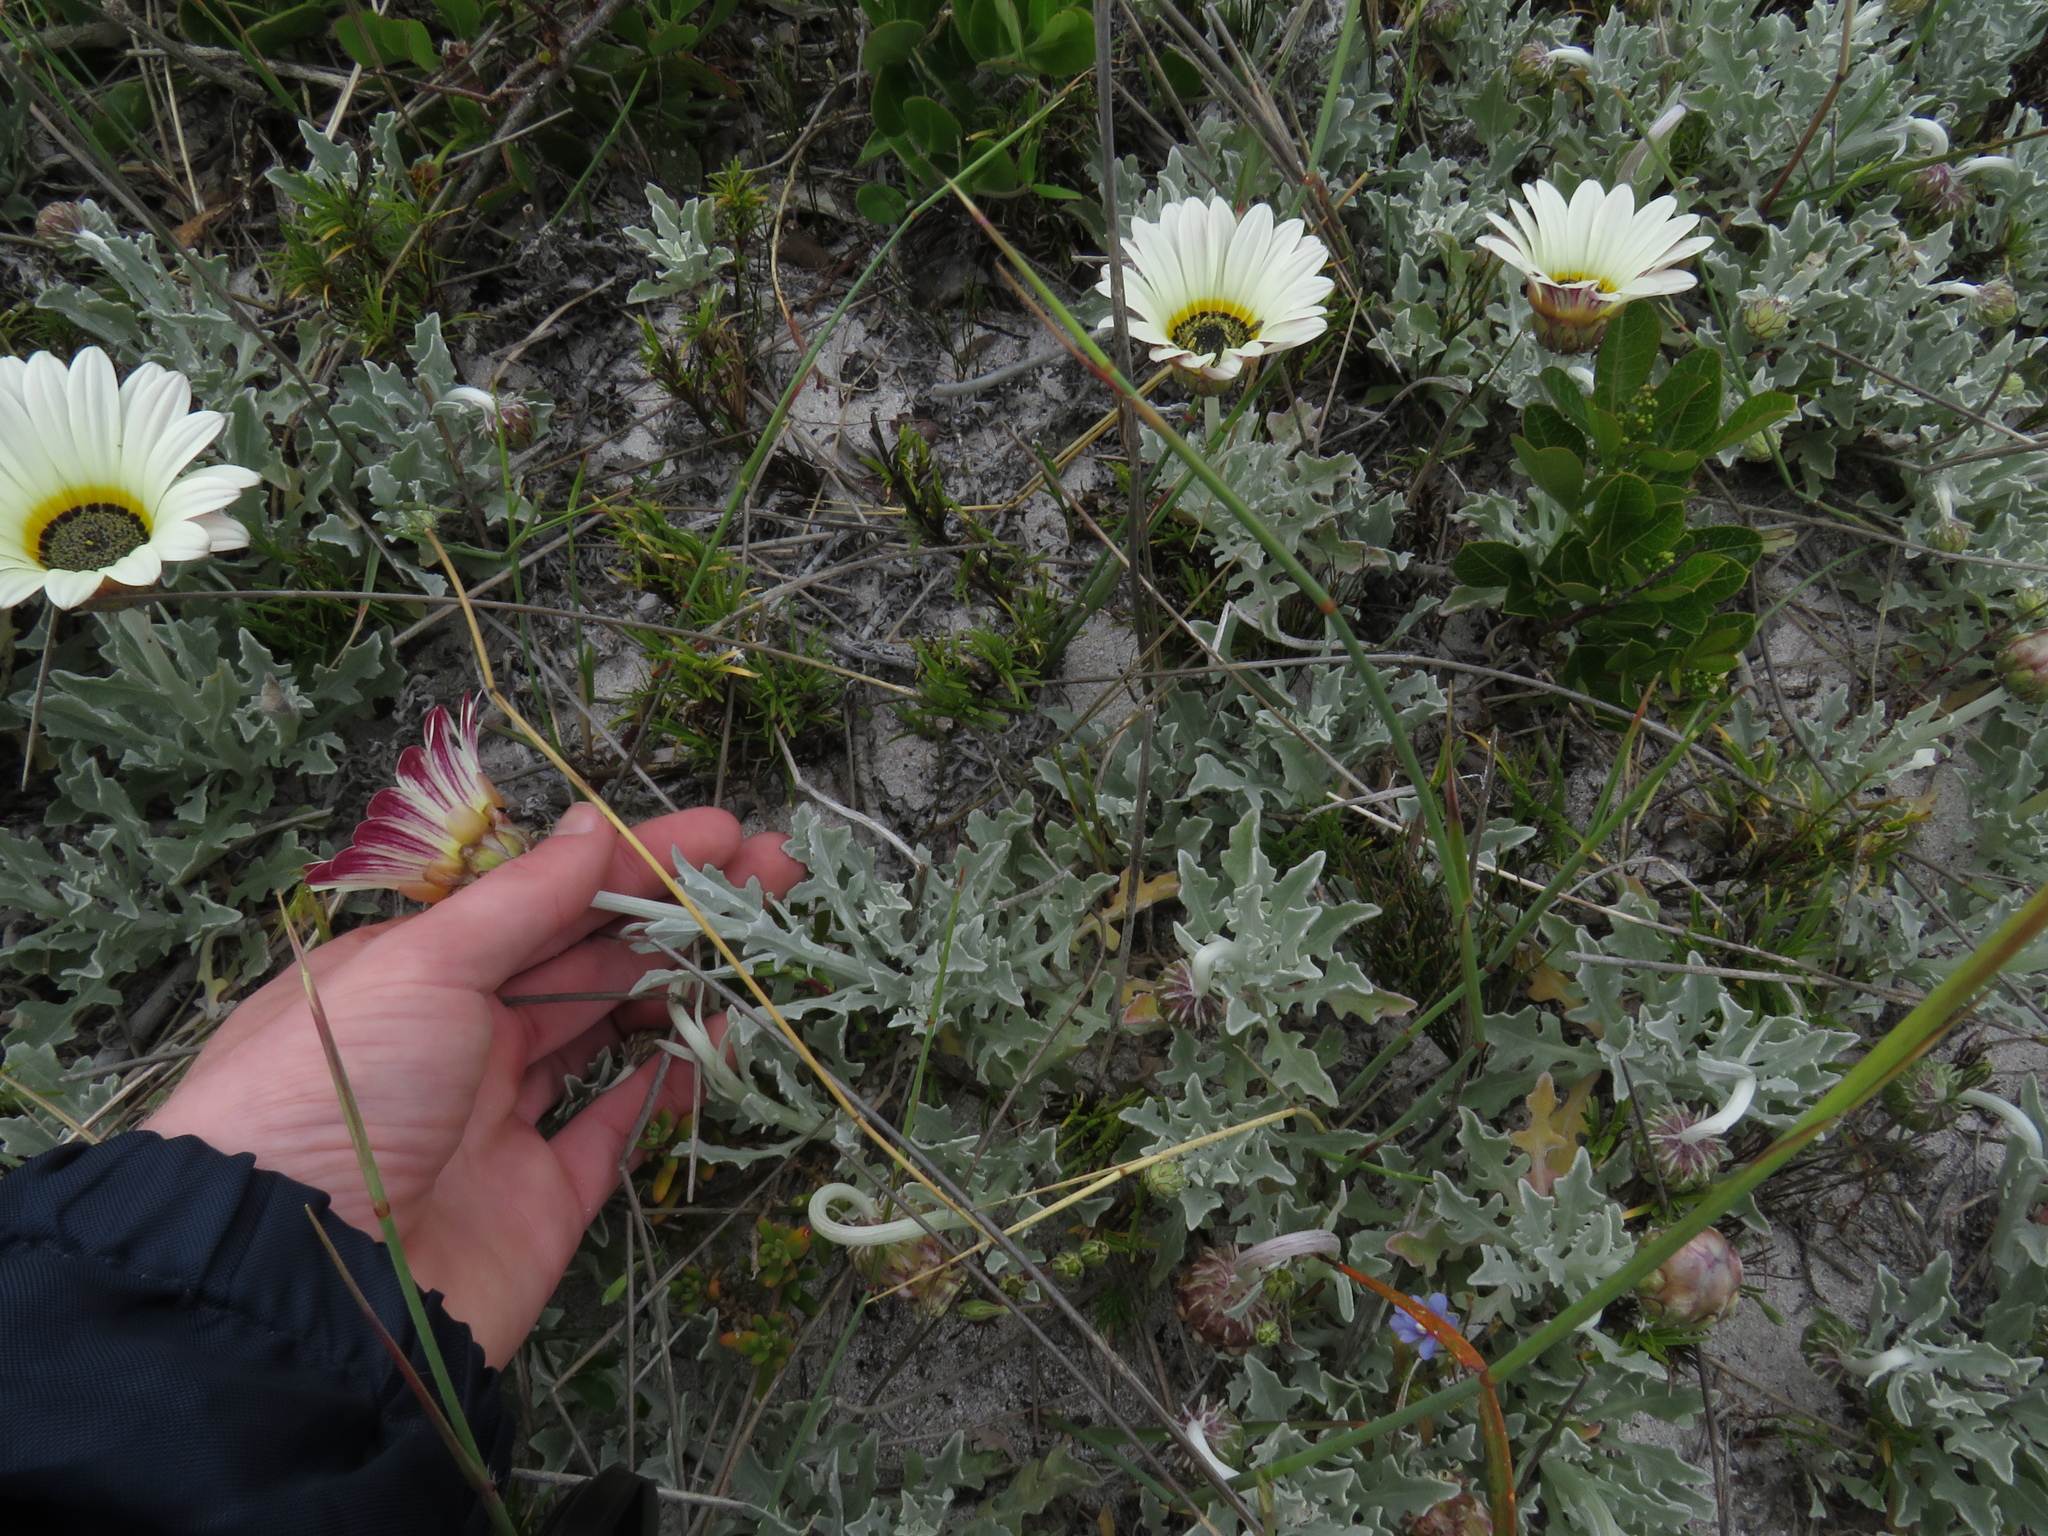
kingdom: Plantae
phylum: Tracheophyta
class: Magnoliopsida
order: Asterales
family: Asteraceae
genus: Arctotis
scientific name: Arctotis stoechadifolia
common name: African daisy
